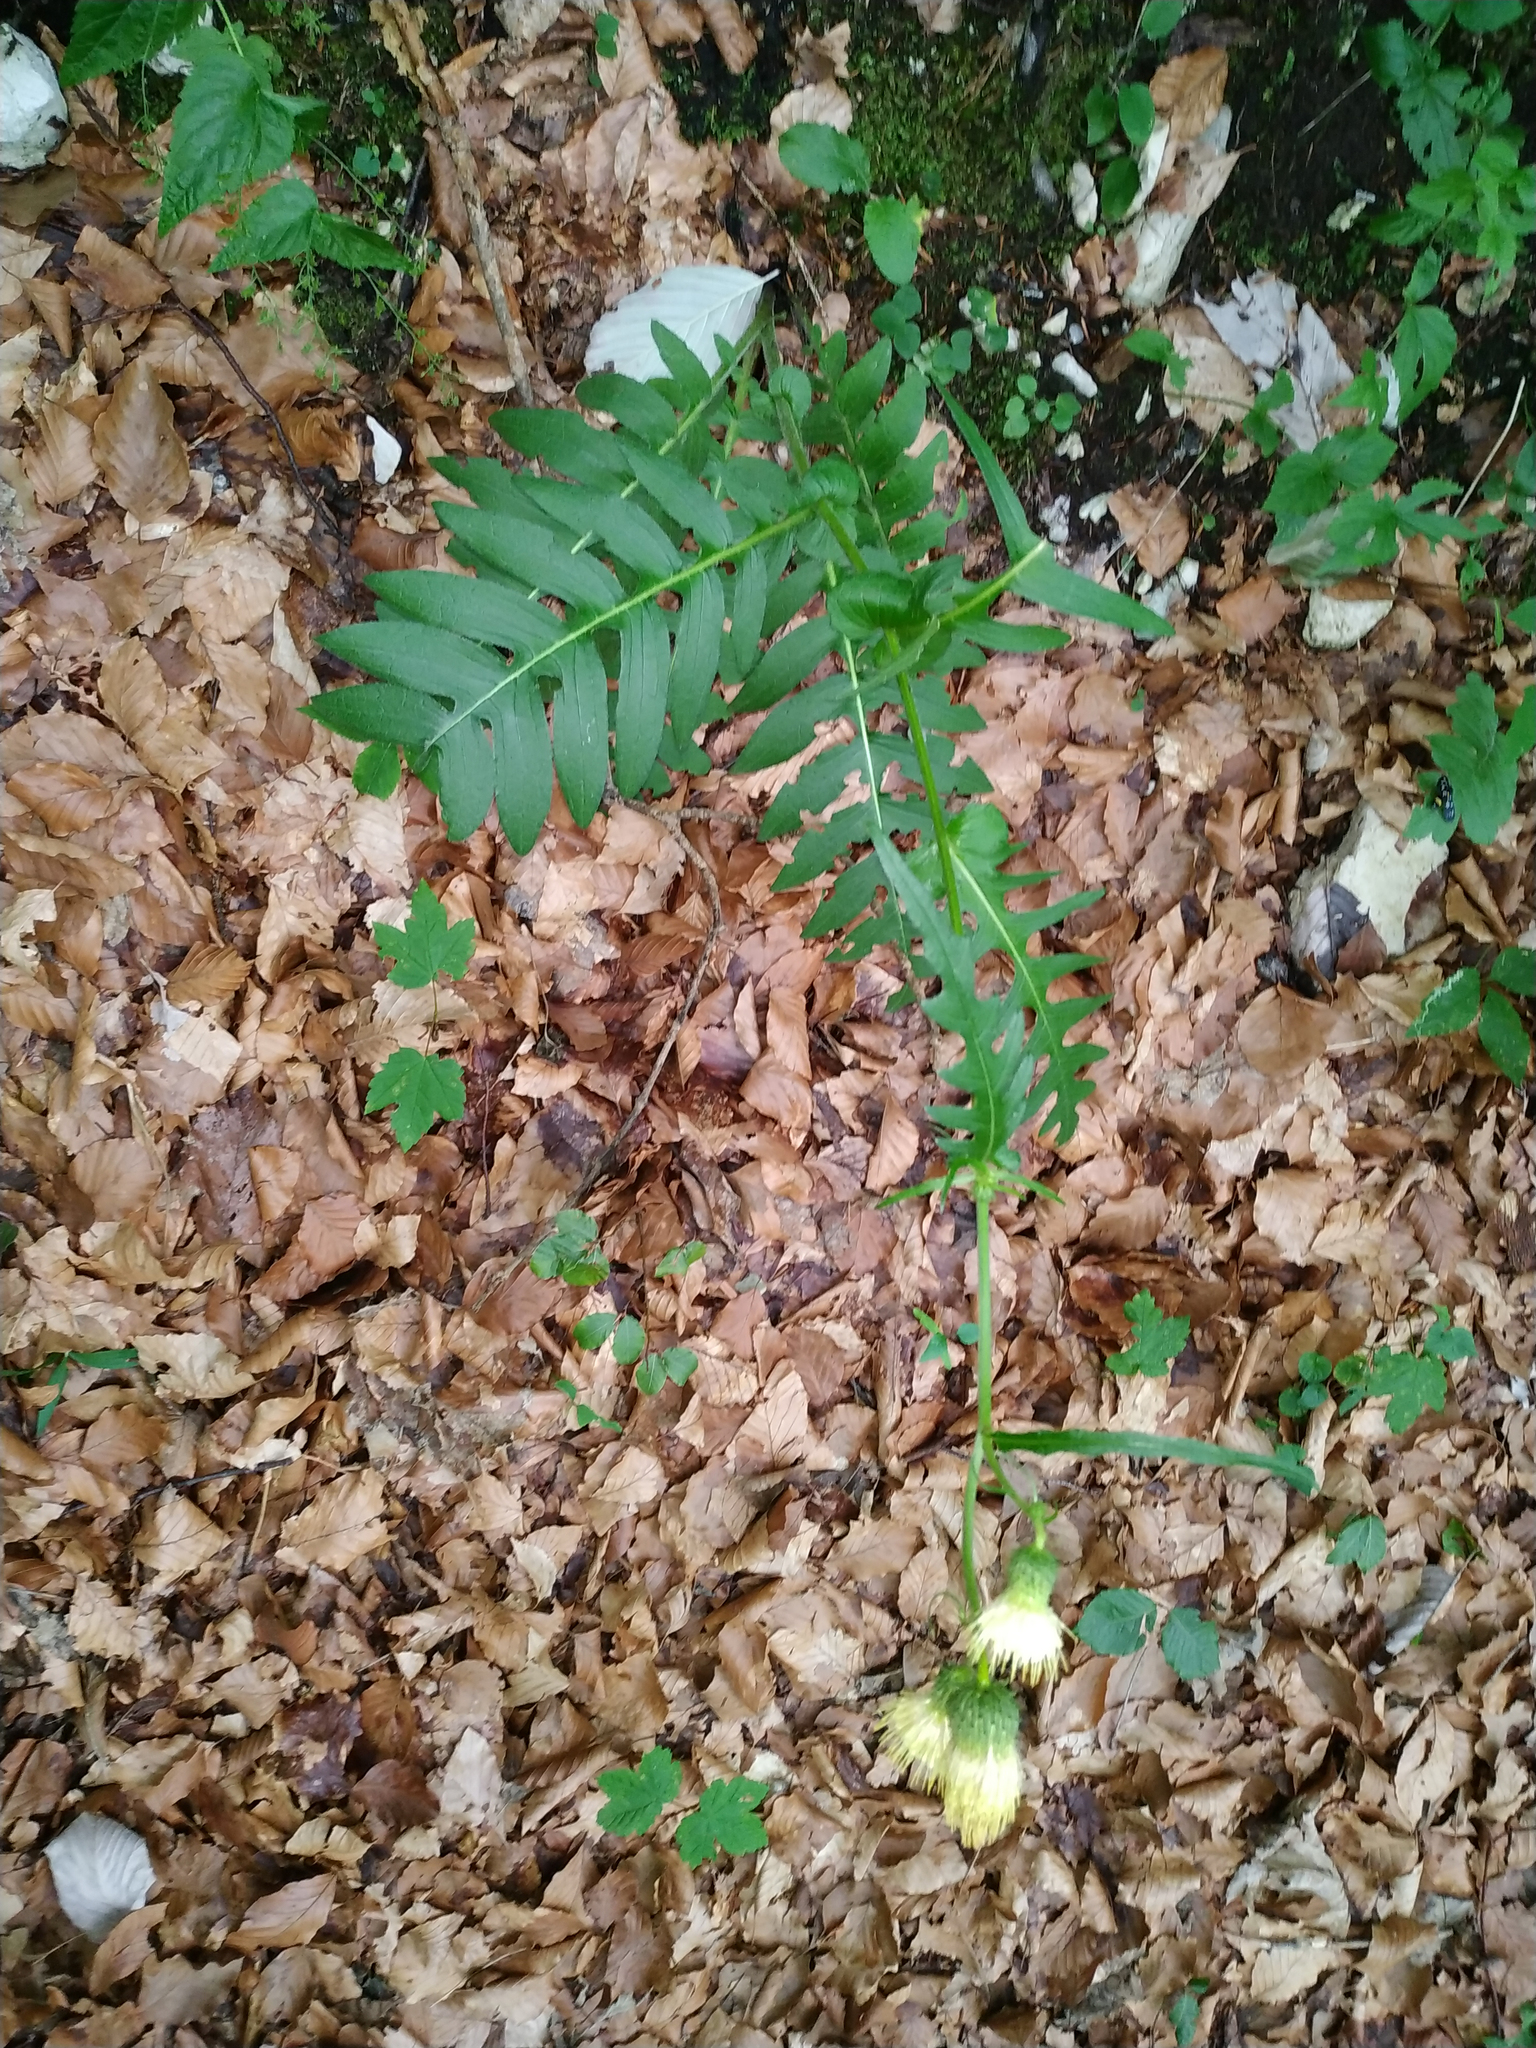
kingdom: Plantae
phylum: Tracheophyta
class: Magnoliopsida
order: Asterales
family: Asteraceae
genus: Cirsium
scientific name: Cirsium erisithales
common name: Yellow thistle
